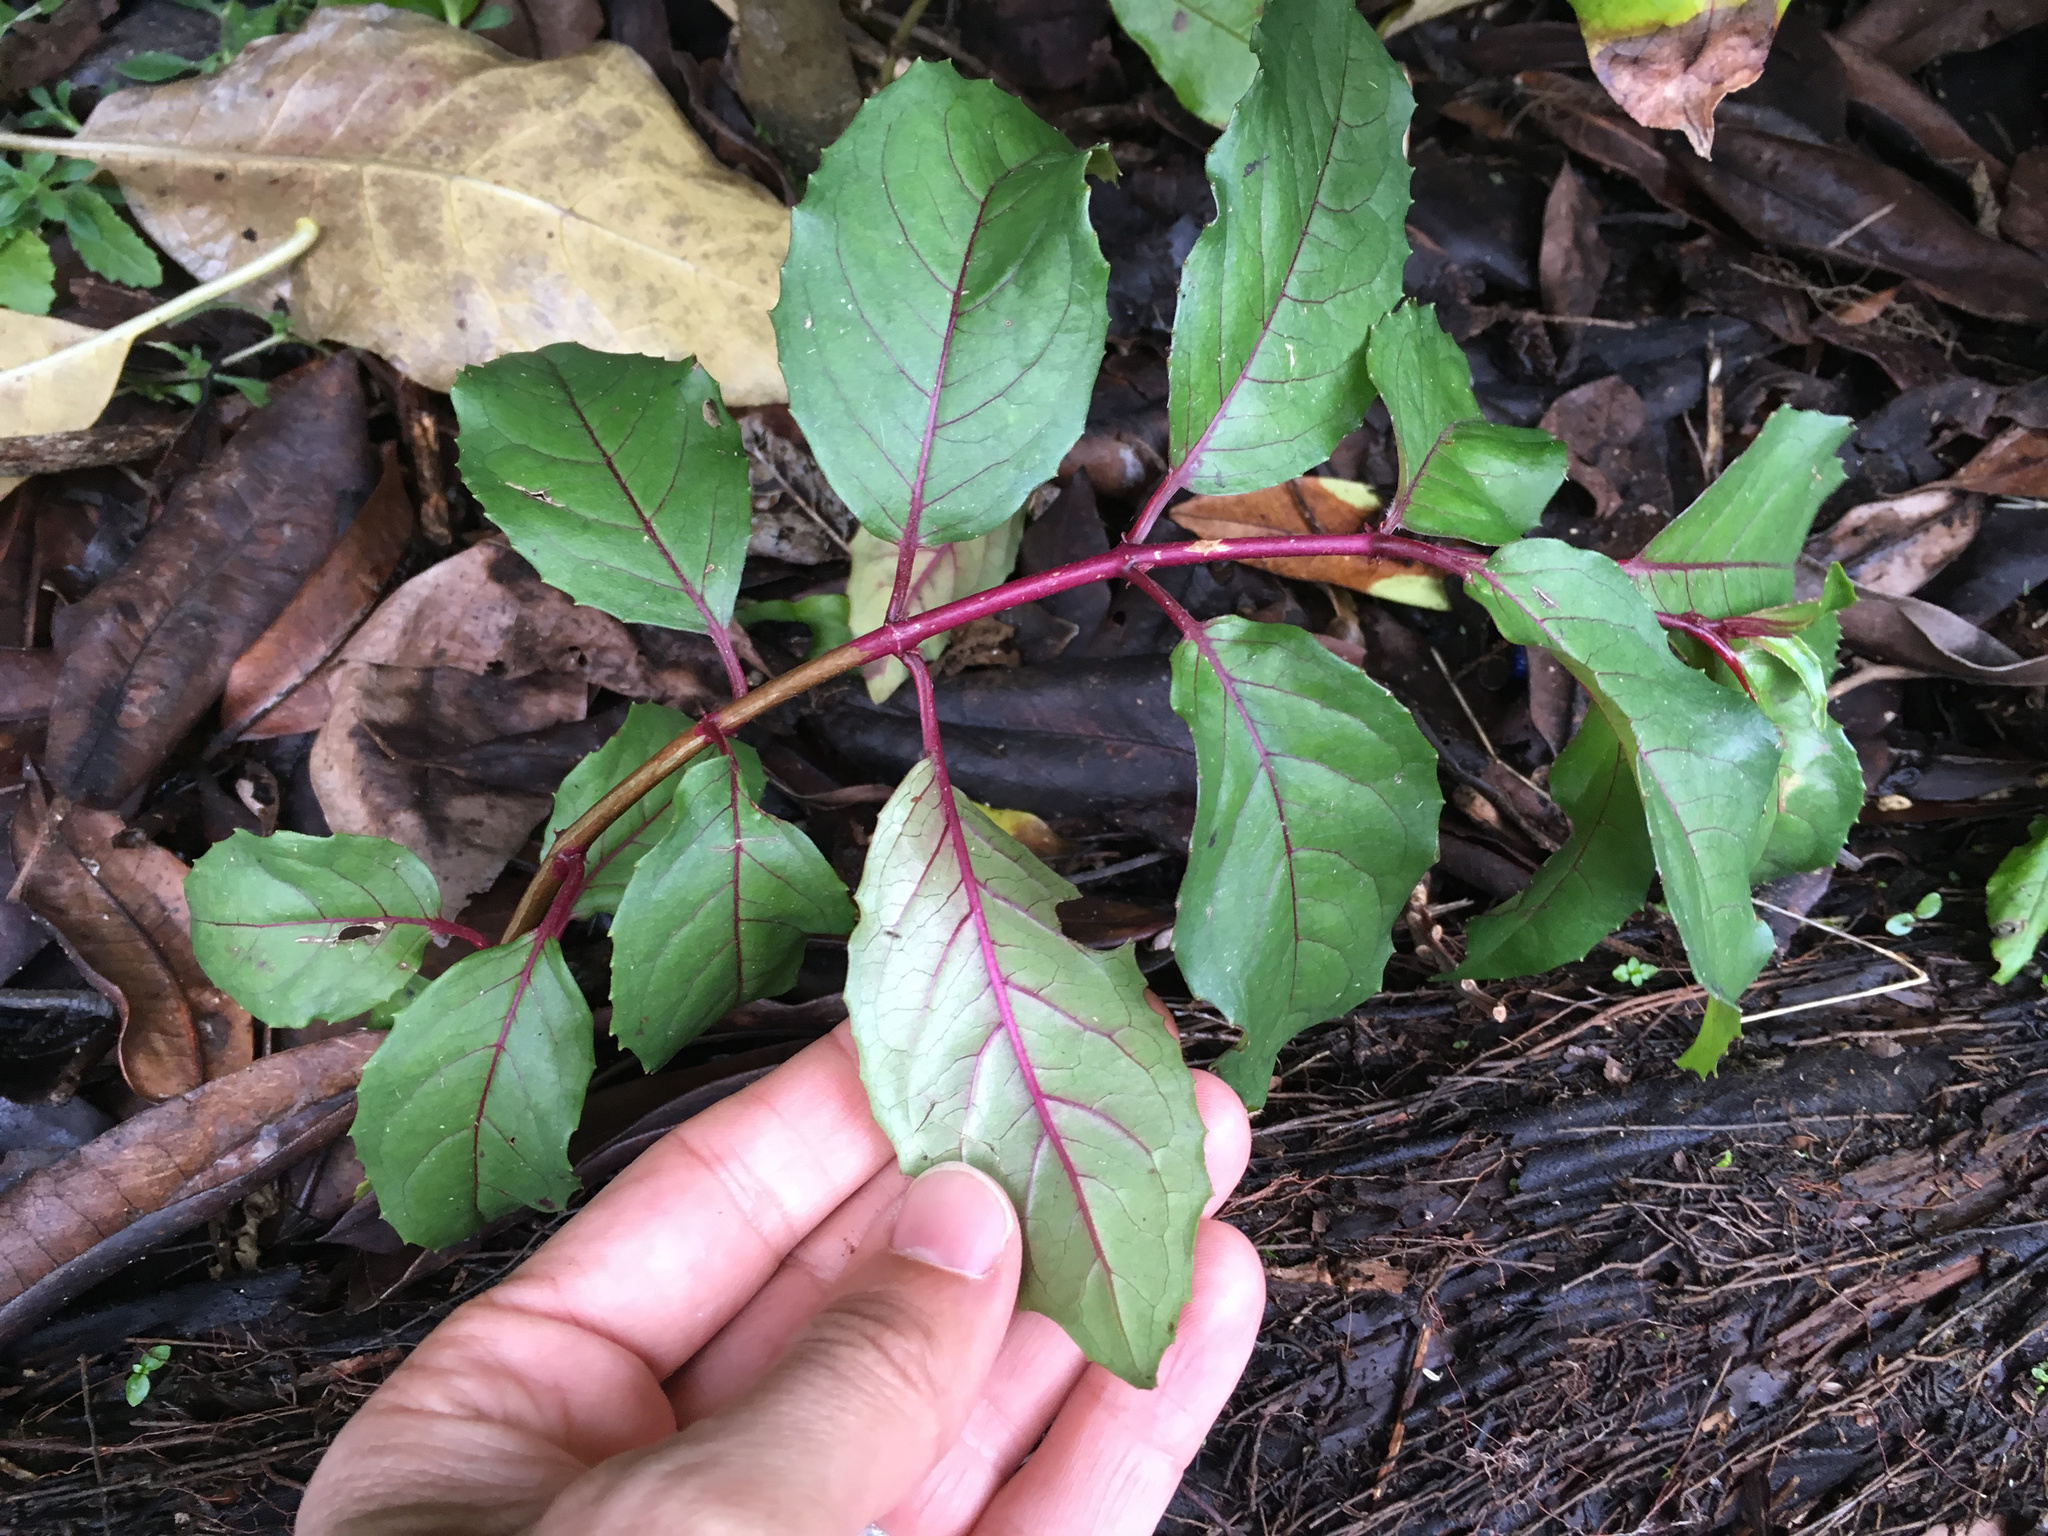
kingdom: Plantae
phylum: Tracheophyta
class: Magnoliopsida
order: Myrtales
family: Onagraceae
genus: Fuchsia
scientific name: Fuchsia magellanica
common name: Hardy fuchsia
